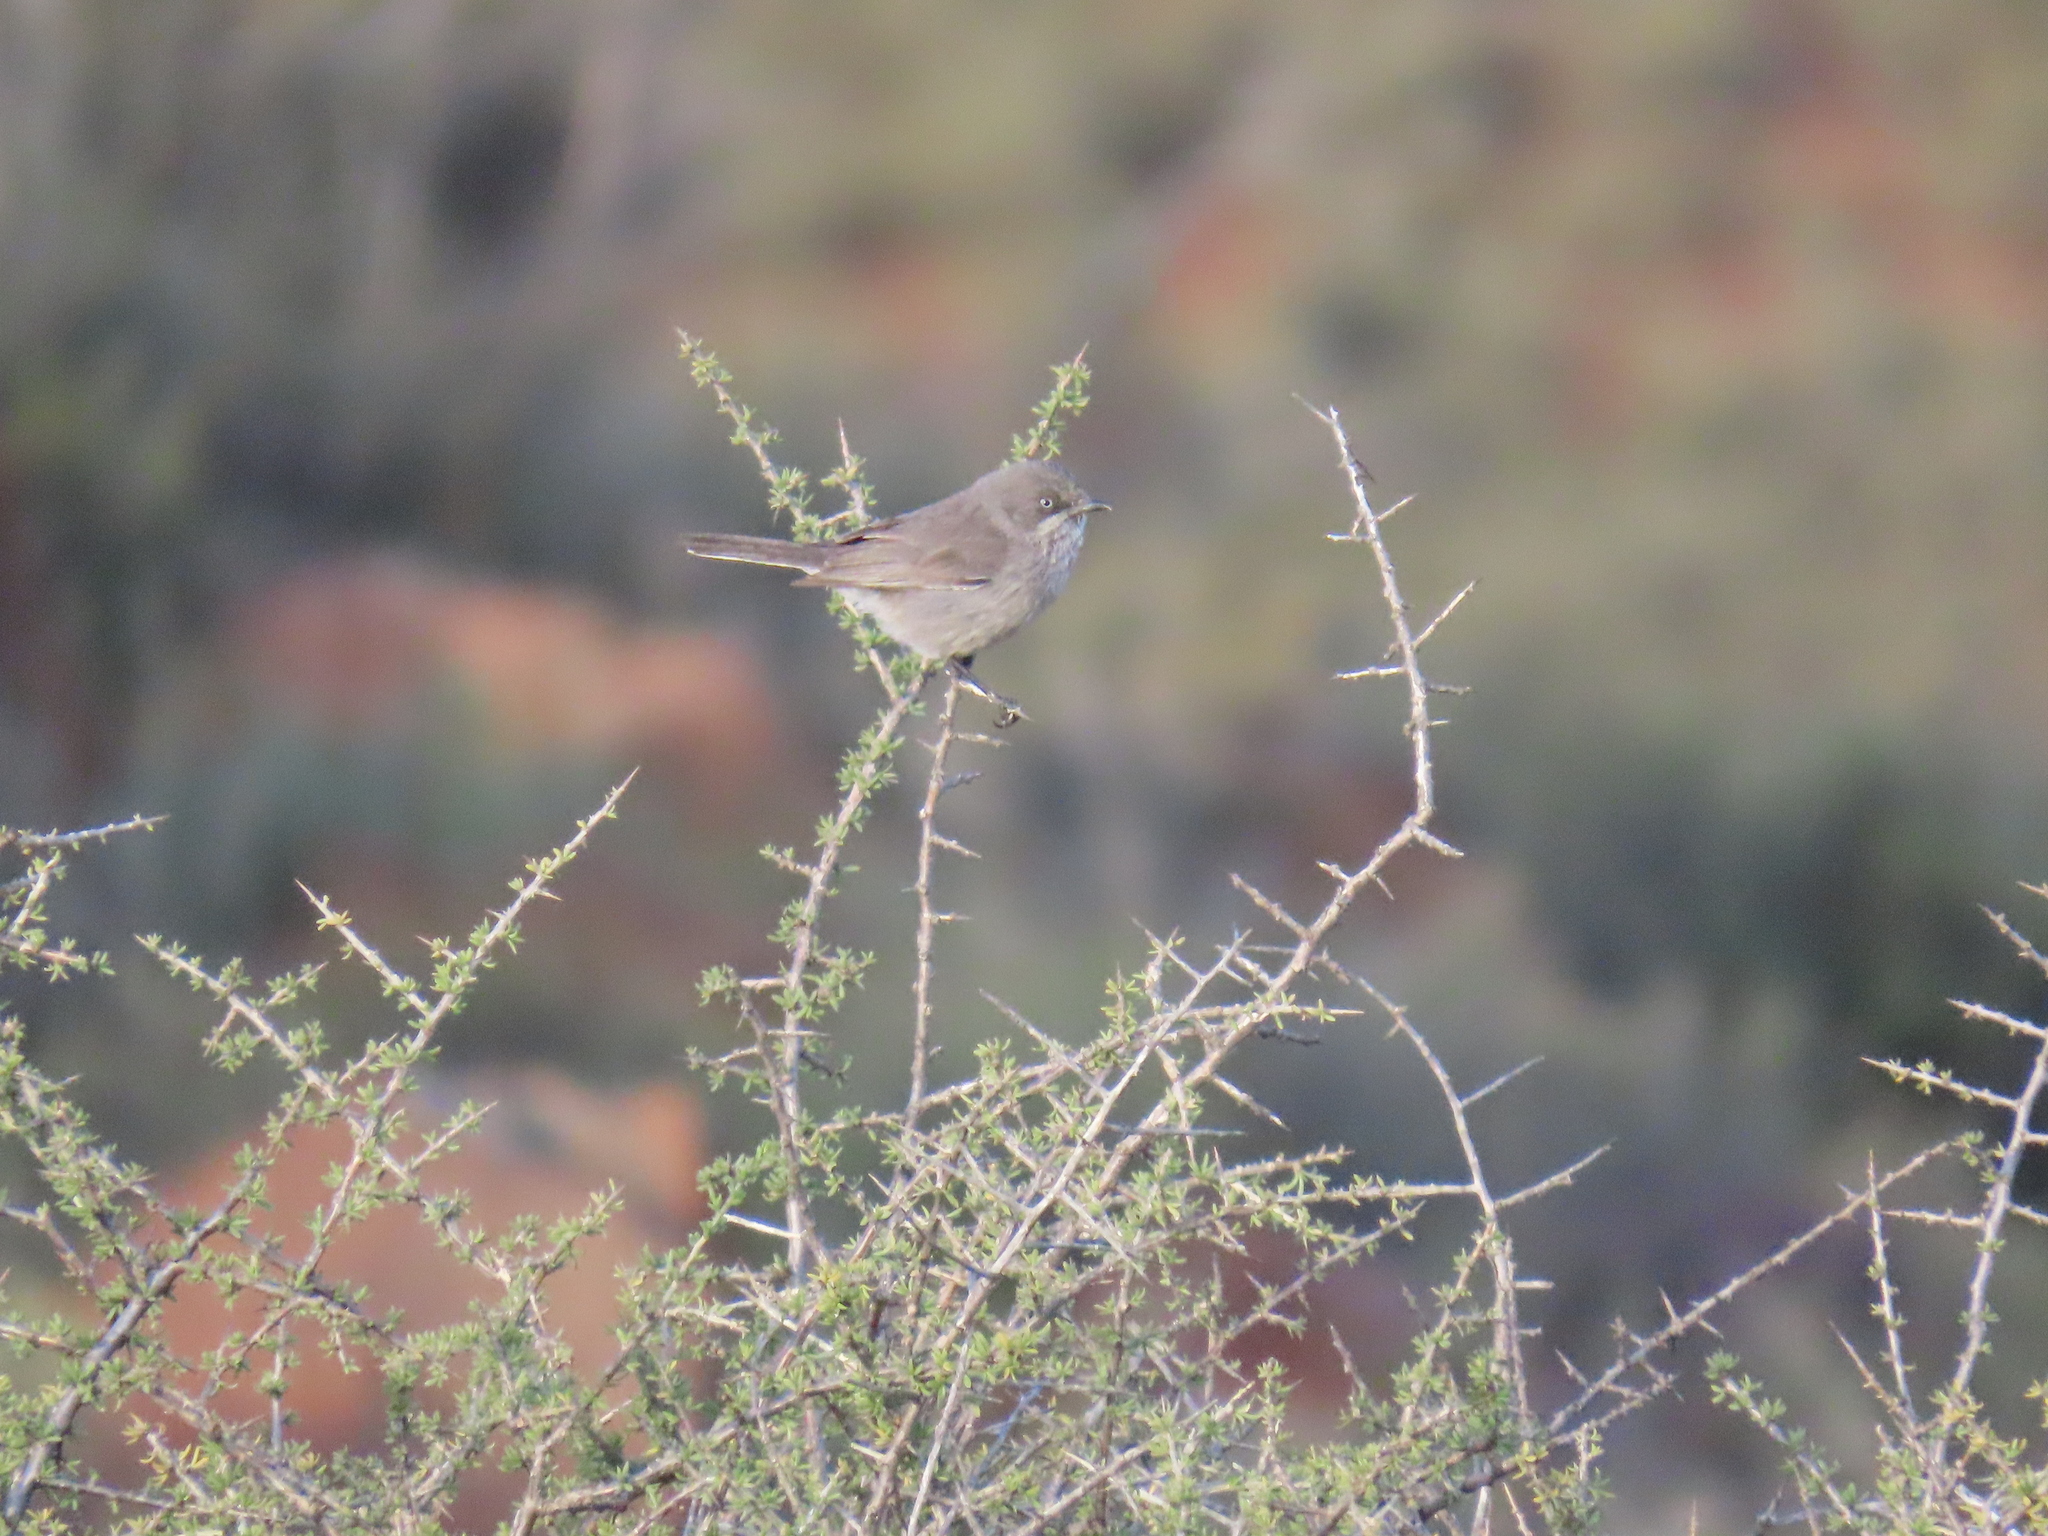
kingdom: Animalia
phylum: Chordata
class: Aves
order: Passeriformes
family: Sylviidae
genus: Sylvia
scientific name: Sylvia layardi
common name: Layard's warbler
